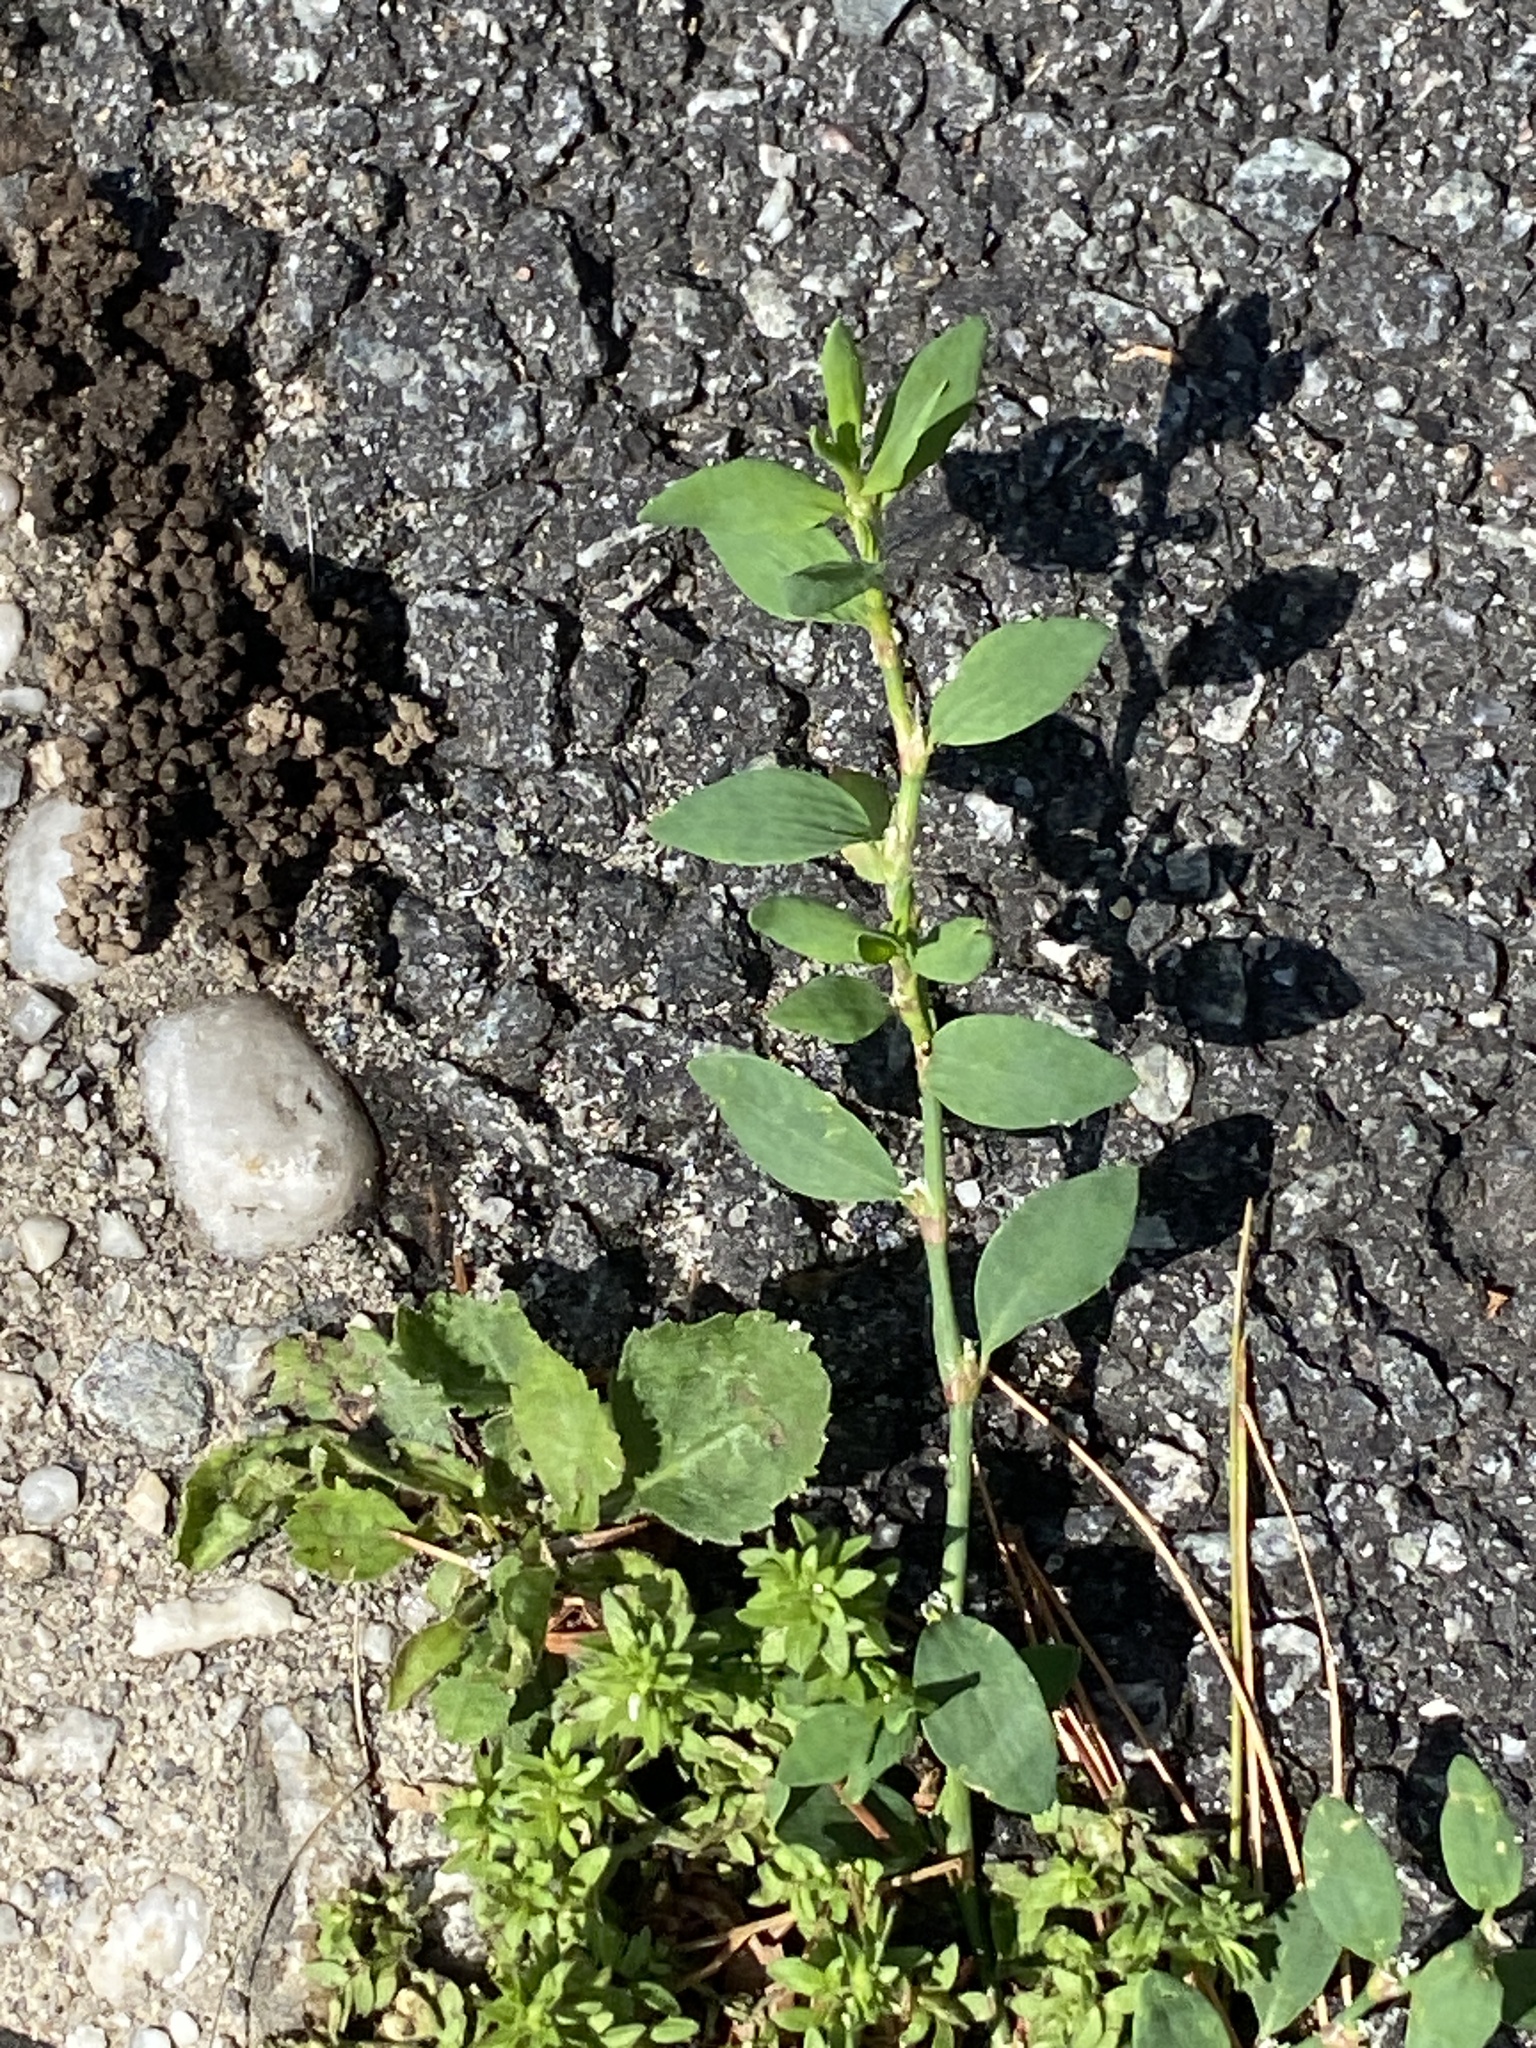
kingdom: Plantae
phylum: Tracheophyta
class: Magnoliopsida
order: Caryophyllales
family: Polygonaceae
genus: Polygonum
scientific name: Polygonum aviculare
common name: Prostrate knotweed
